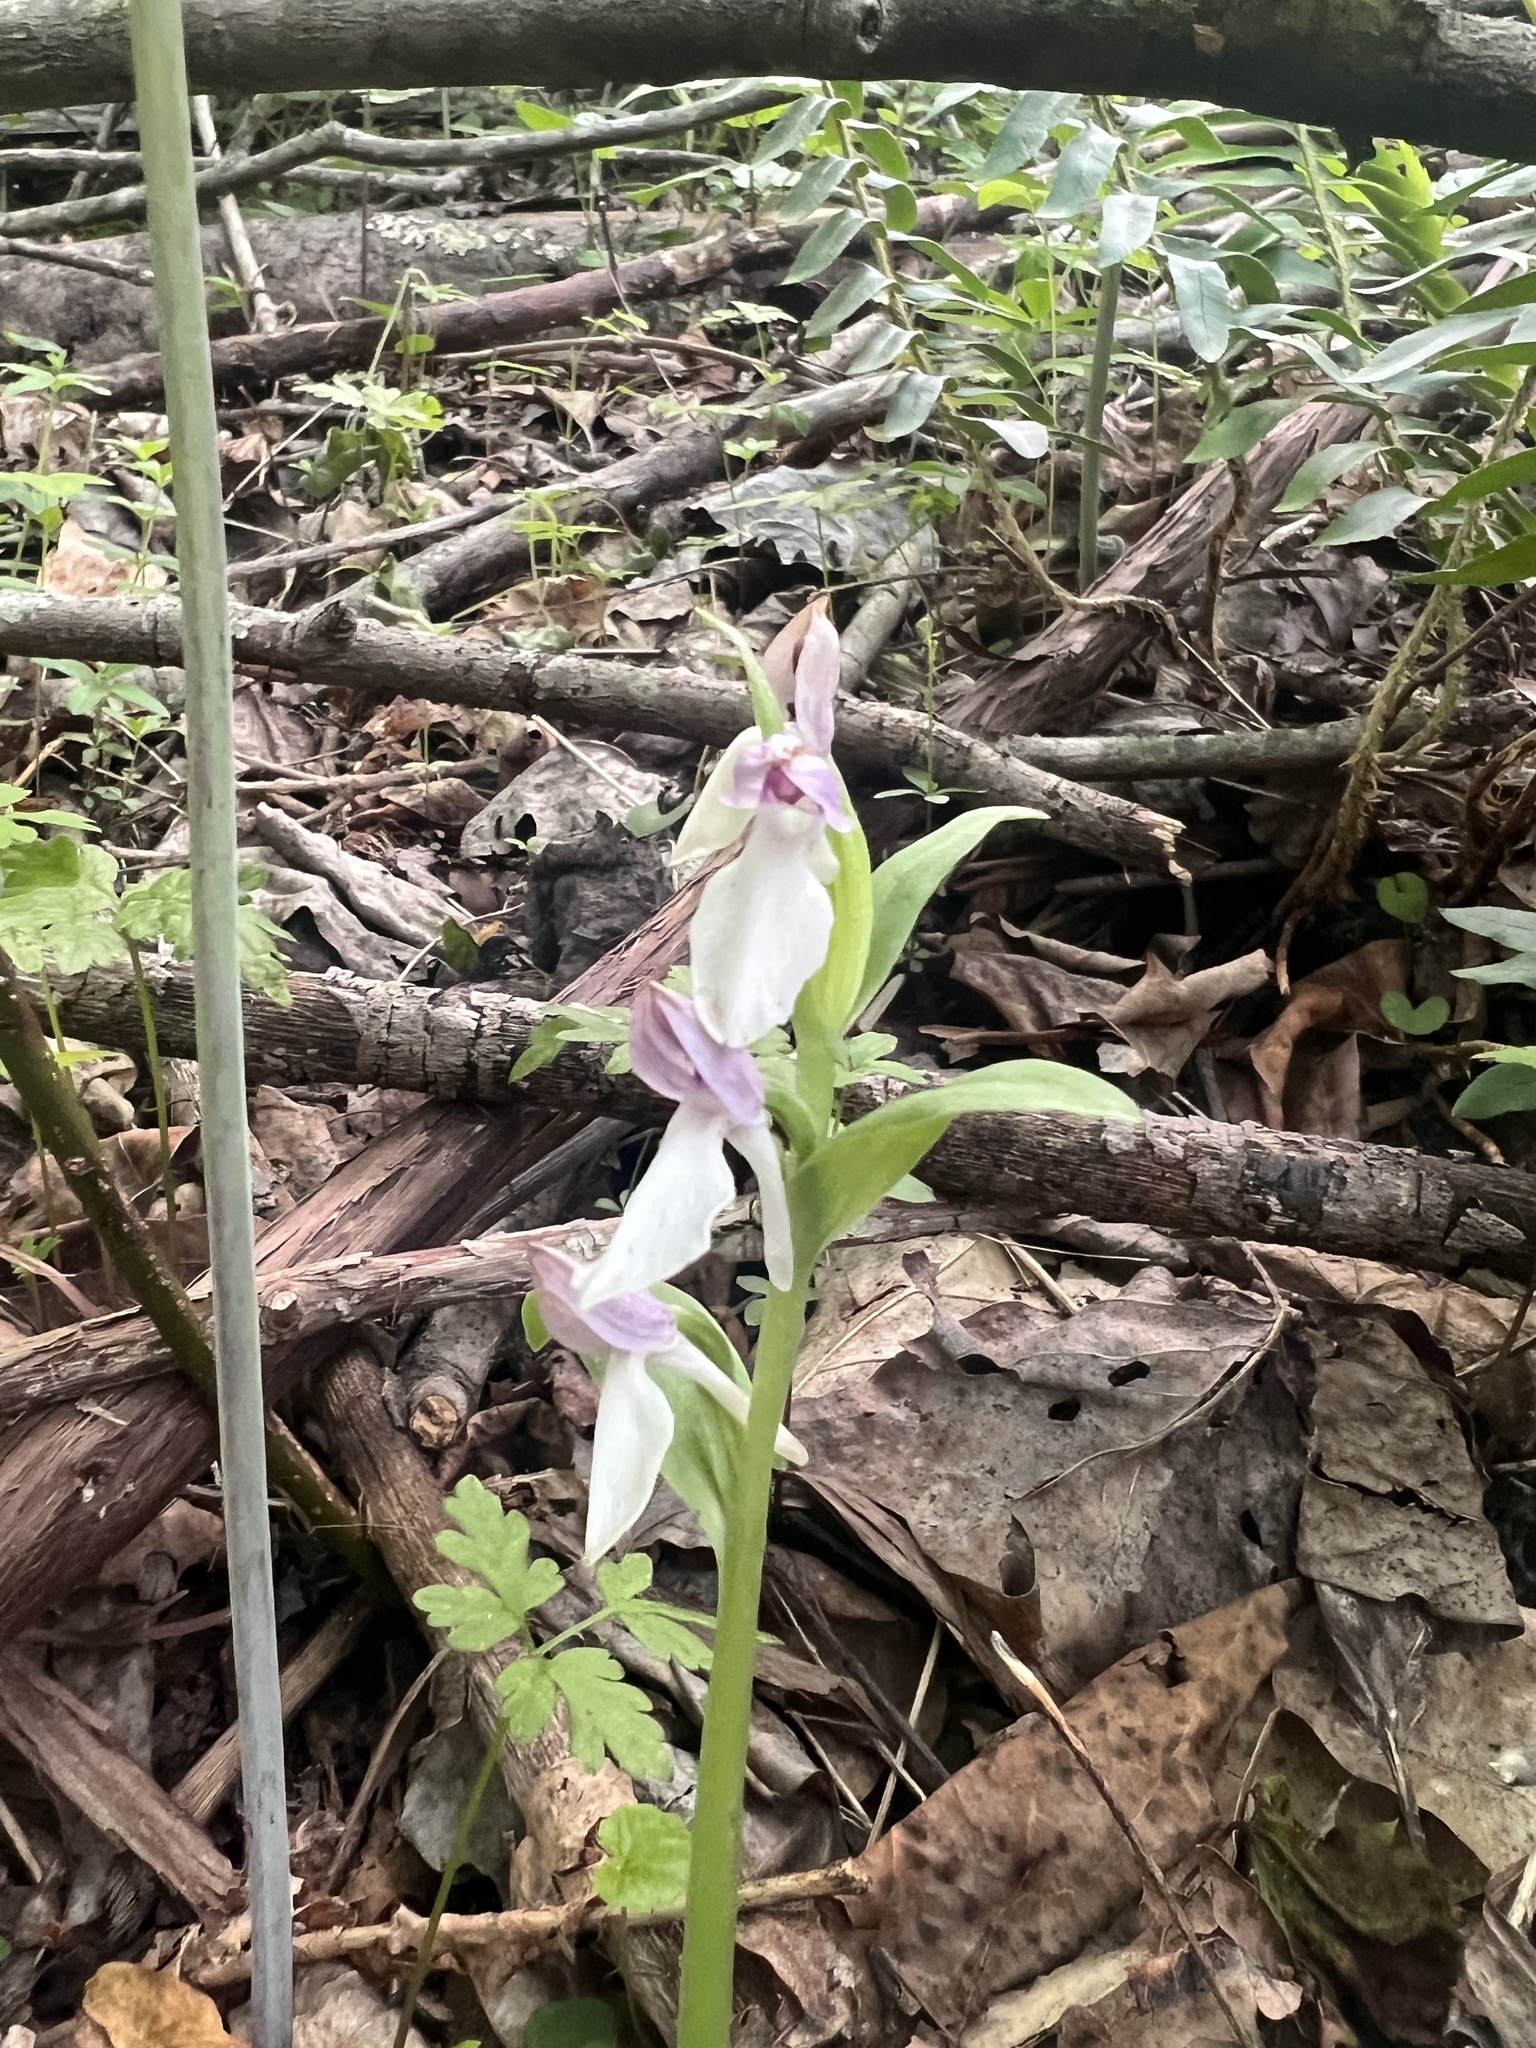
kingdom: Plantae
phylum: Tracheophyta
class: Liliopsida
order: Asparagales
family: Orchidaceae
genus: Galearis
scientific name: Galearis spectabilis
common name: Purple-hooded orchis
